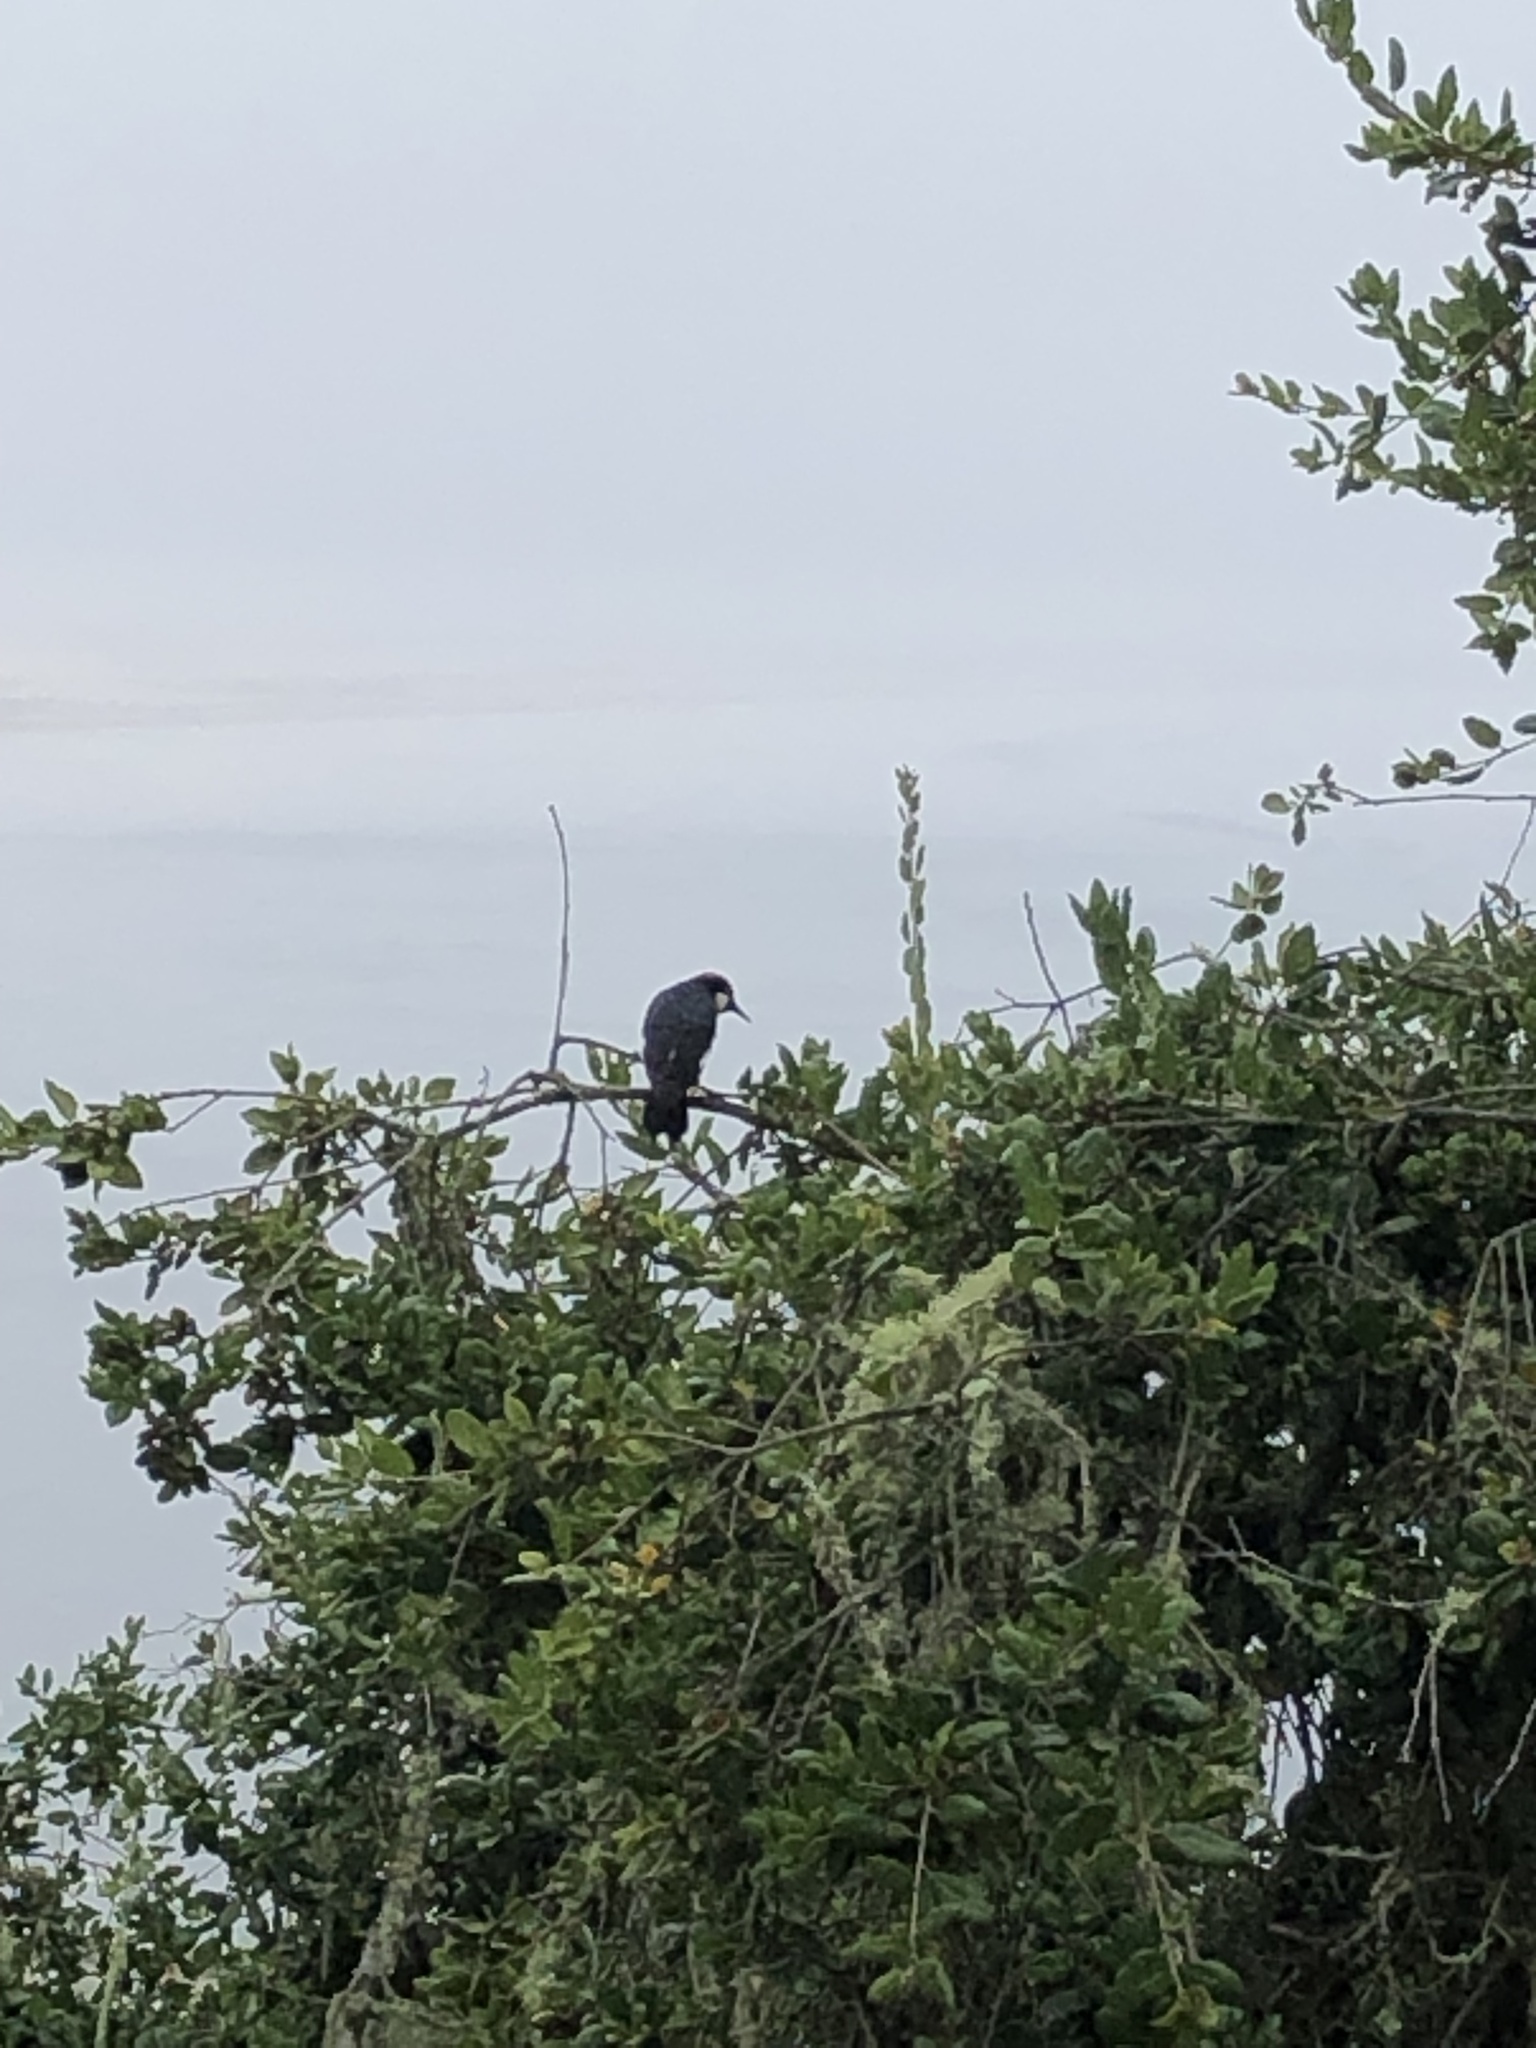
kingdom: Animalia
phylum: Chordata
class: Aves
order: Piciformes
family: Picidae
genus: Melanerpes
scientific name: Melanerpes formicivorus
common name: Acorn woodpecker
